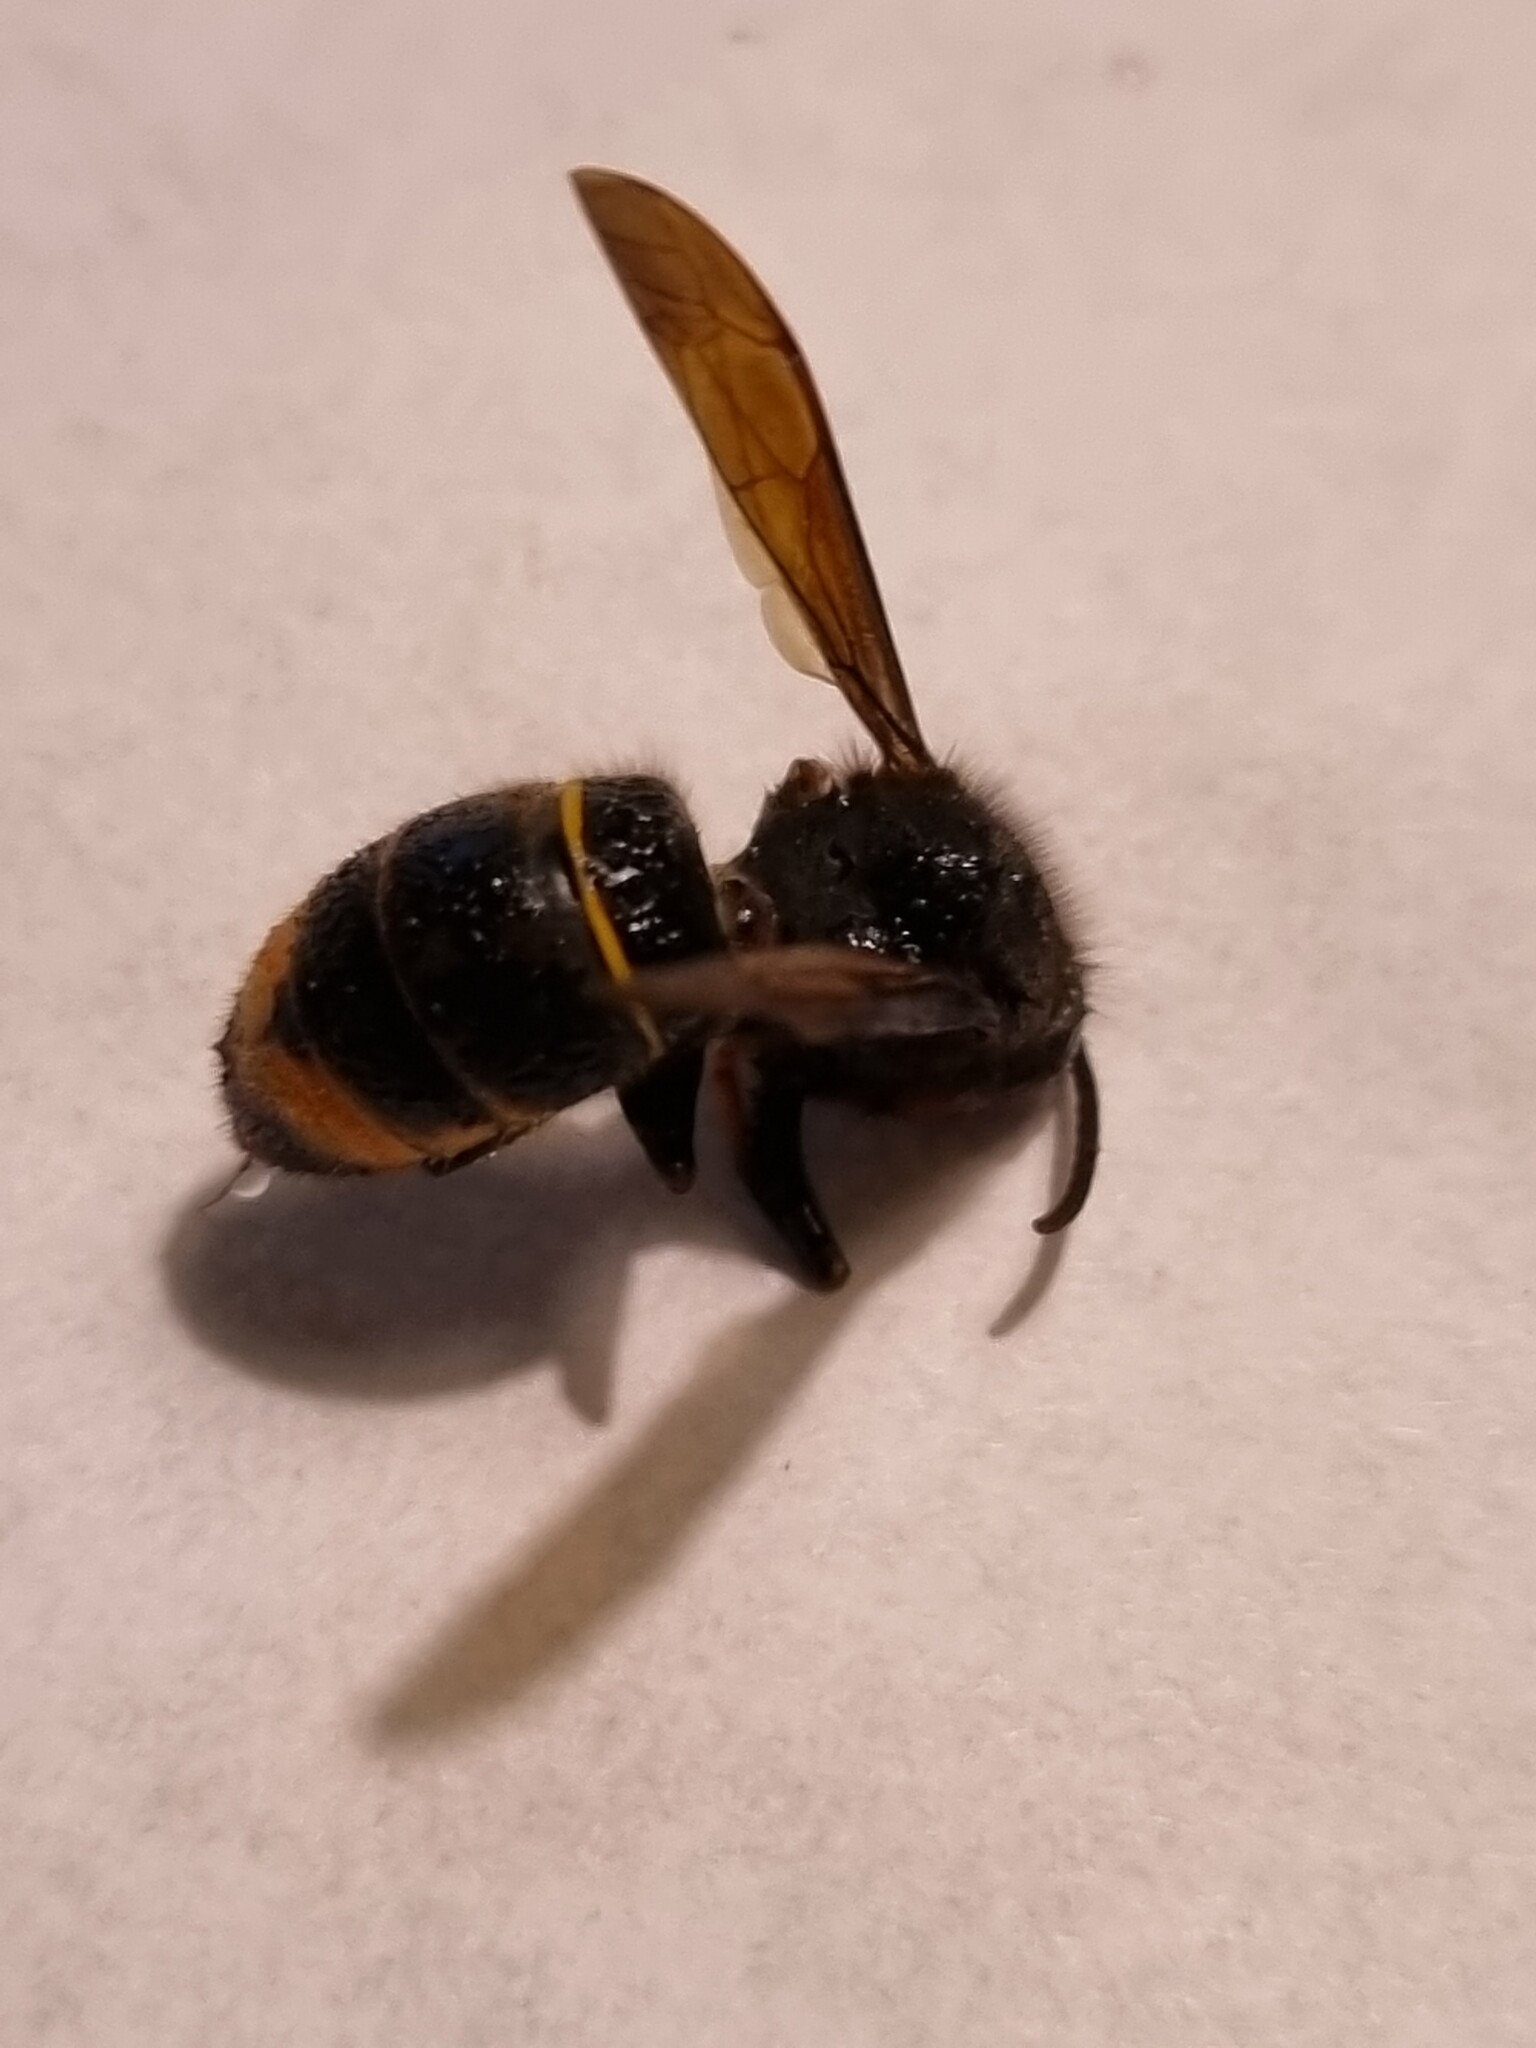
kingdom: Animalia
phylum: Arthropoda
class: Insecta
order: Hymenoptera
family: Vespidae
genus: Vespa
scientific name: Vespa velutina
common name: Asian hornet
